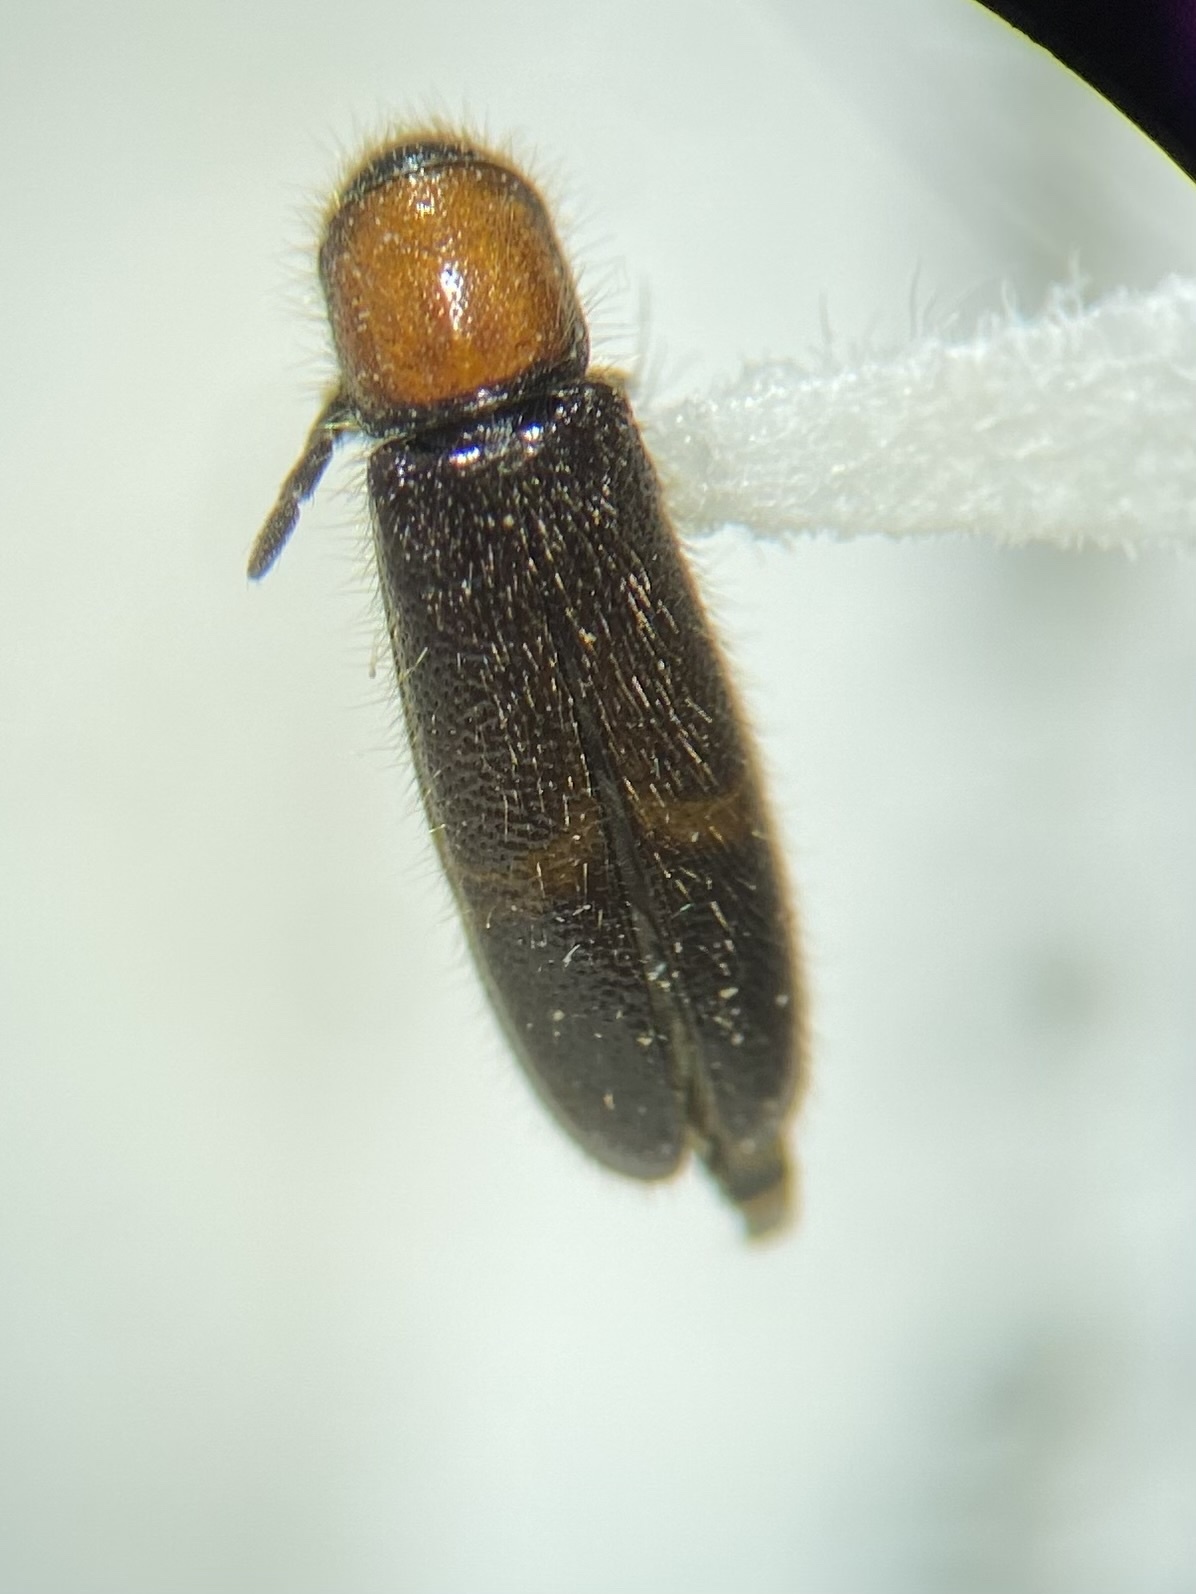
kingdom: Animalia
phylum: Arthropoda
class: Insecta
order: Coleoptera
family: Cleridae
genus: Neorthopleura
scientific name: Neorthopleura thoracica
